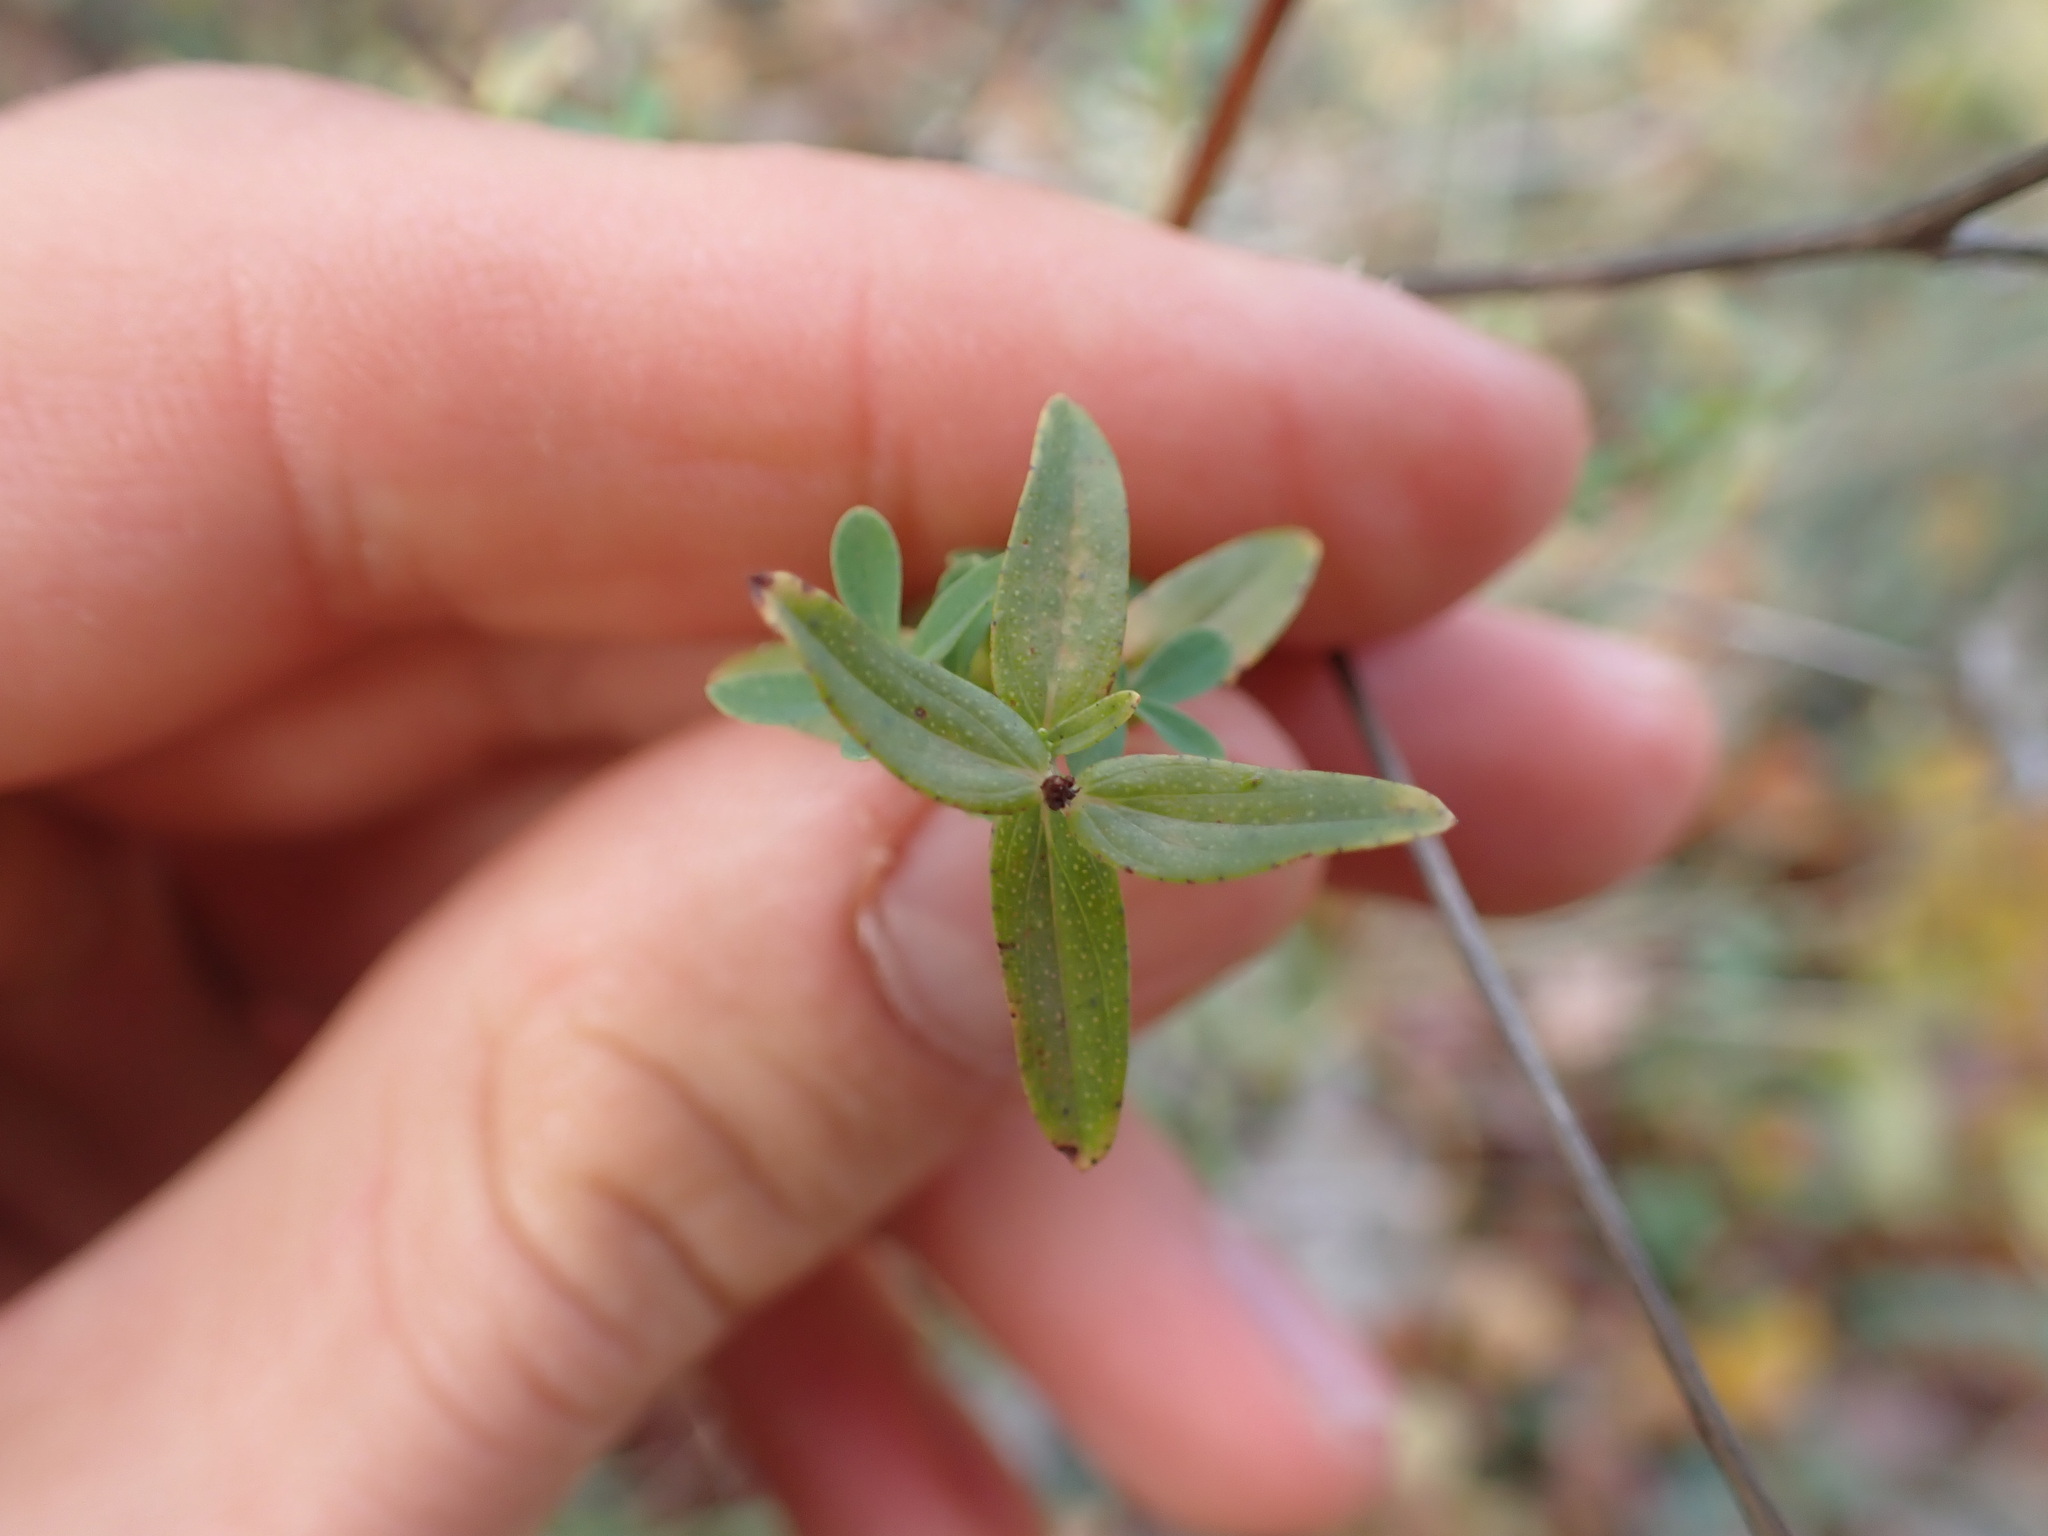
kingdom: Plantae
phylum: Tracheophyta
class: Magnoliopsida
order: Malpighiales
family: Hypericaceae
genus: Hypericum
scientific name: Hypericum perforatum
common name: Common st. johnswort
